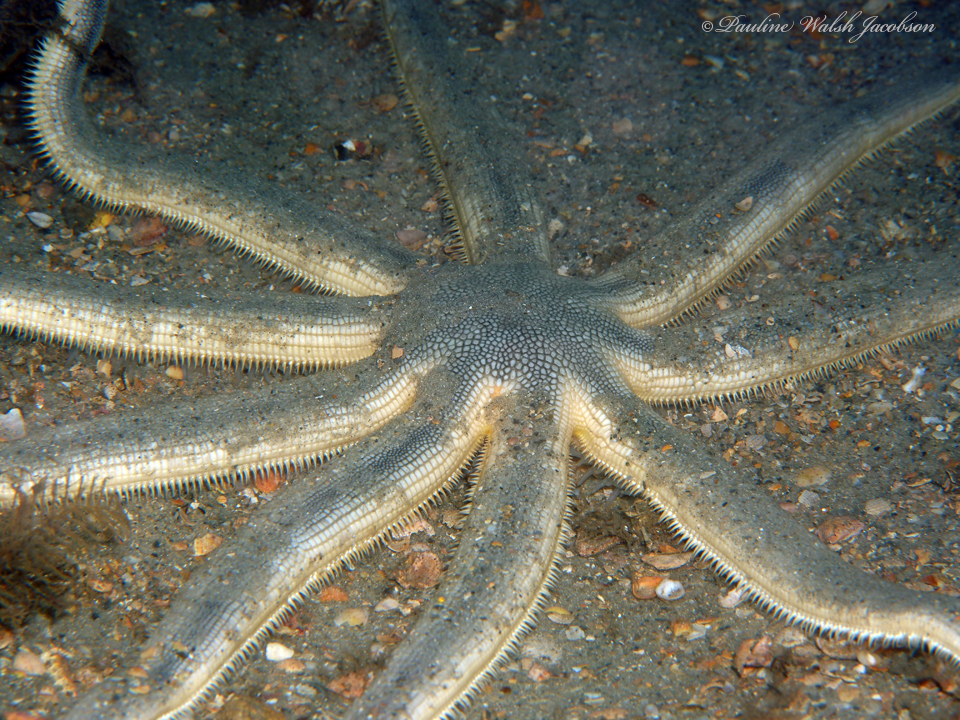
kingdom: Animalia
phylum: Echinodermata
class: Asteroidea
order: Paxillosida
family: Luidiidae
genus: Luidia
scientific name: Luidia senegalensis
